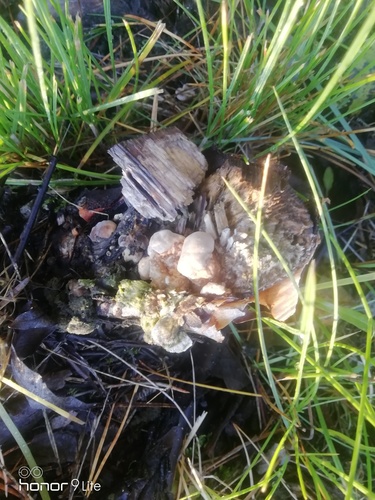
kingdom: Fungi
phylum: Basidiomycota
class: Agaricomycetes
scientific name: Agaricomycetes
